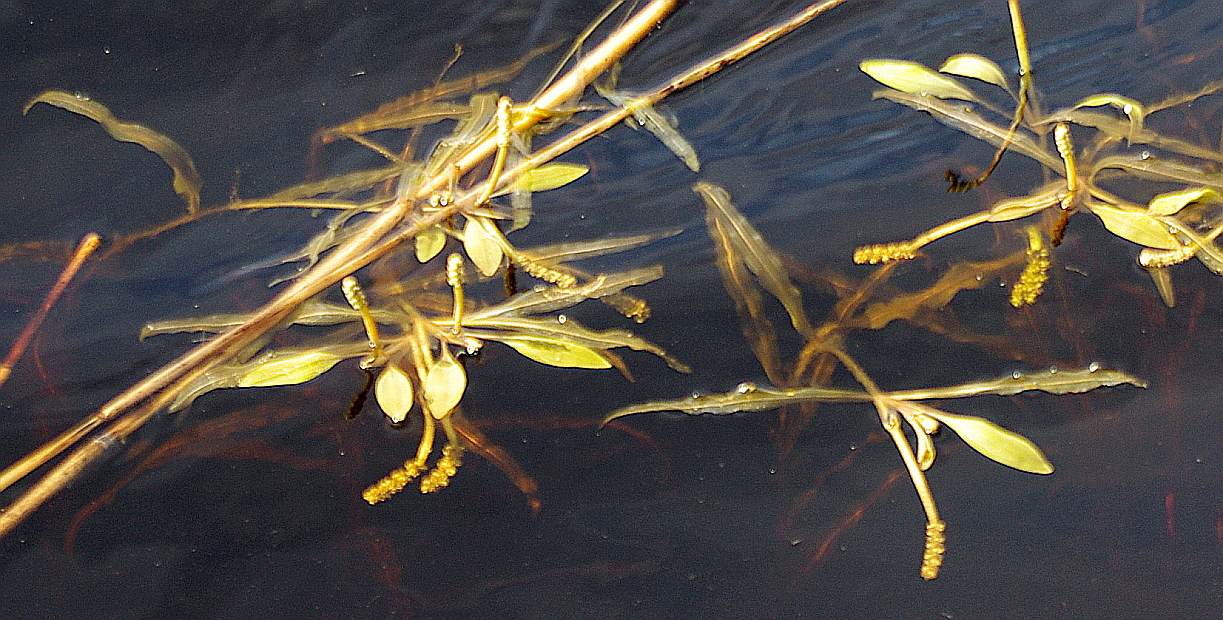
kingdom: Plantae
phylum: Tracheophyta
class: Liliopsida
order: Alismatales
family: Potamogetonaceae
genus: Potamogeton
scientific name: Potamogeton gramineus
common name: Various-leaved pondweed
